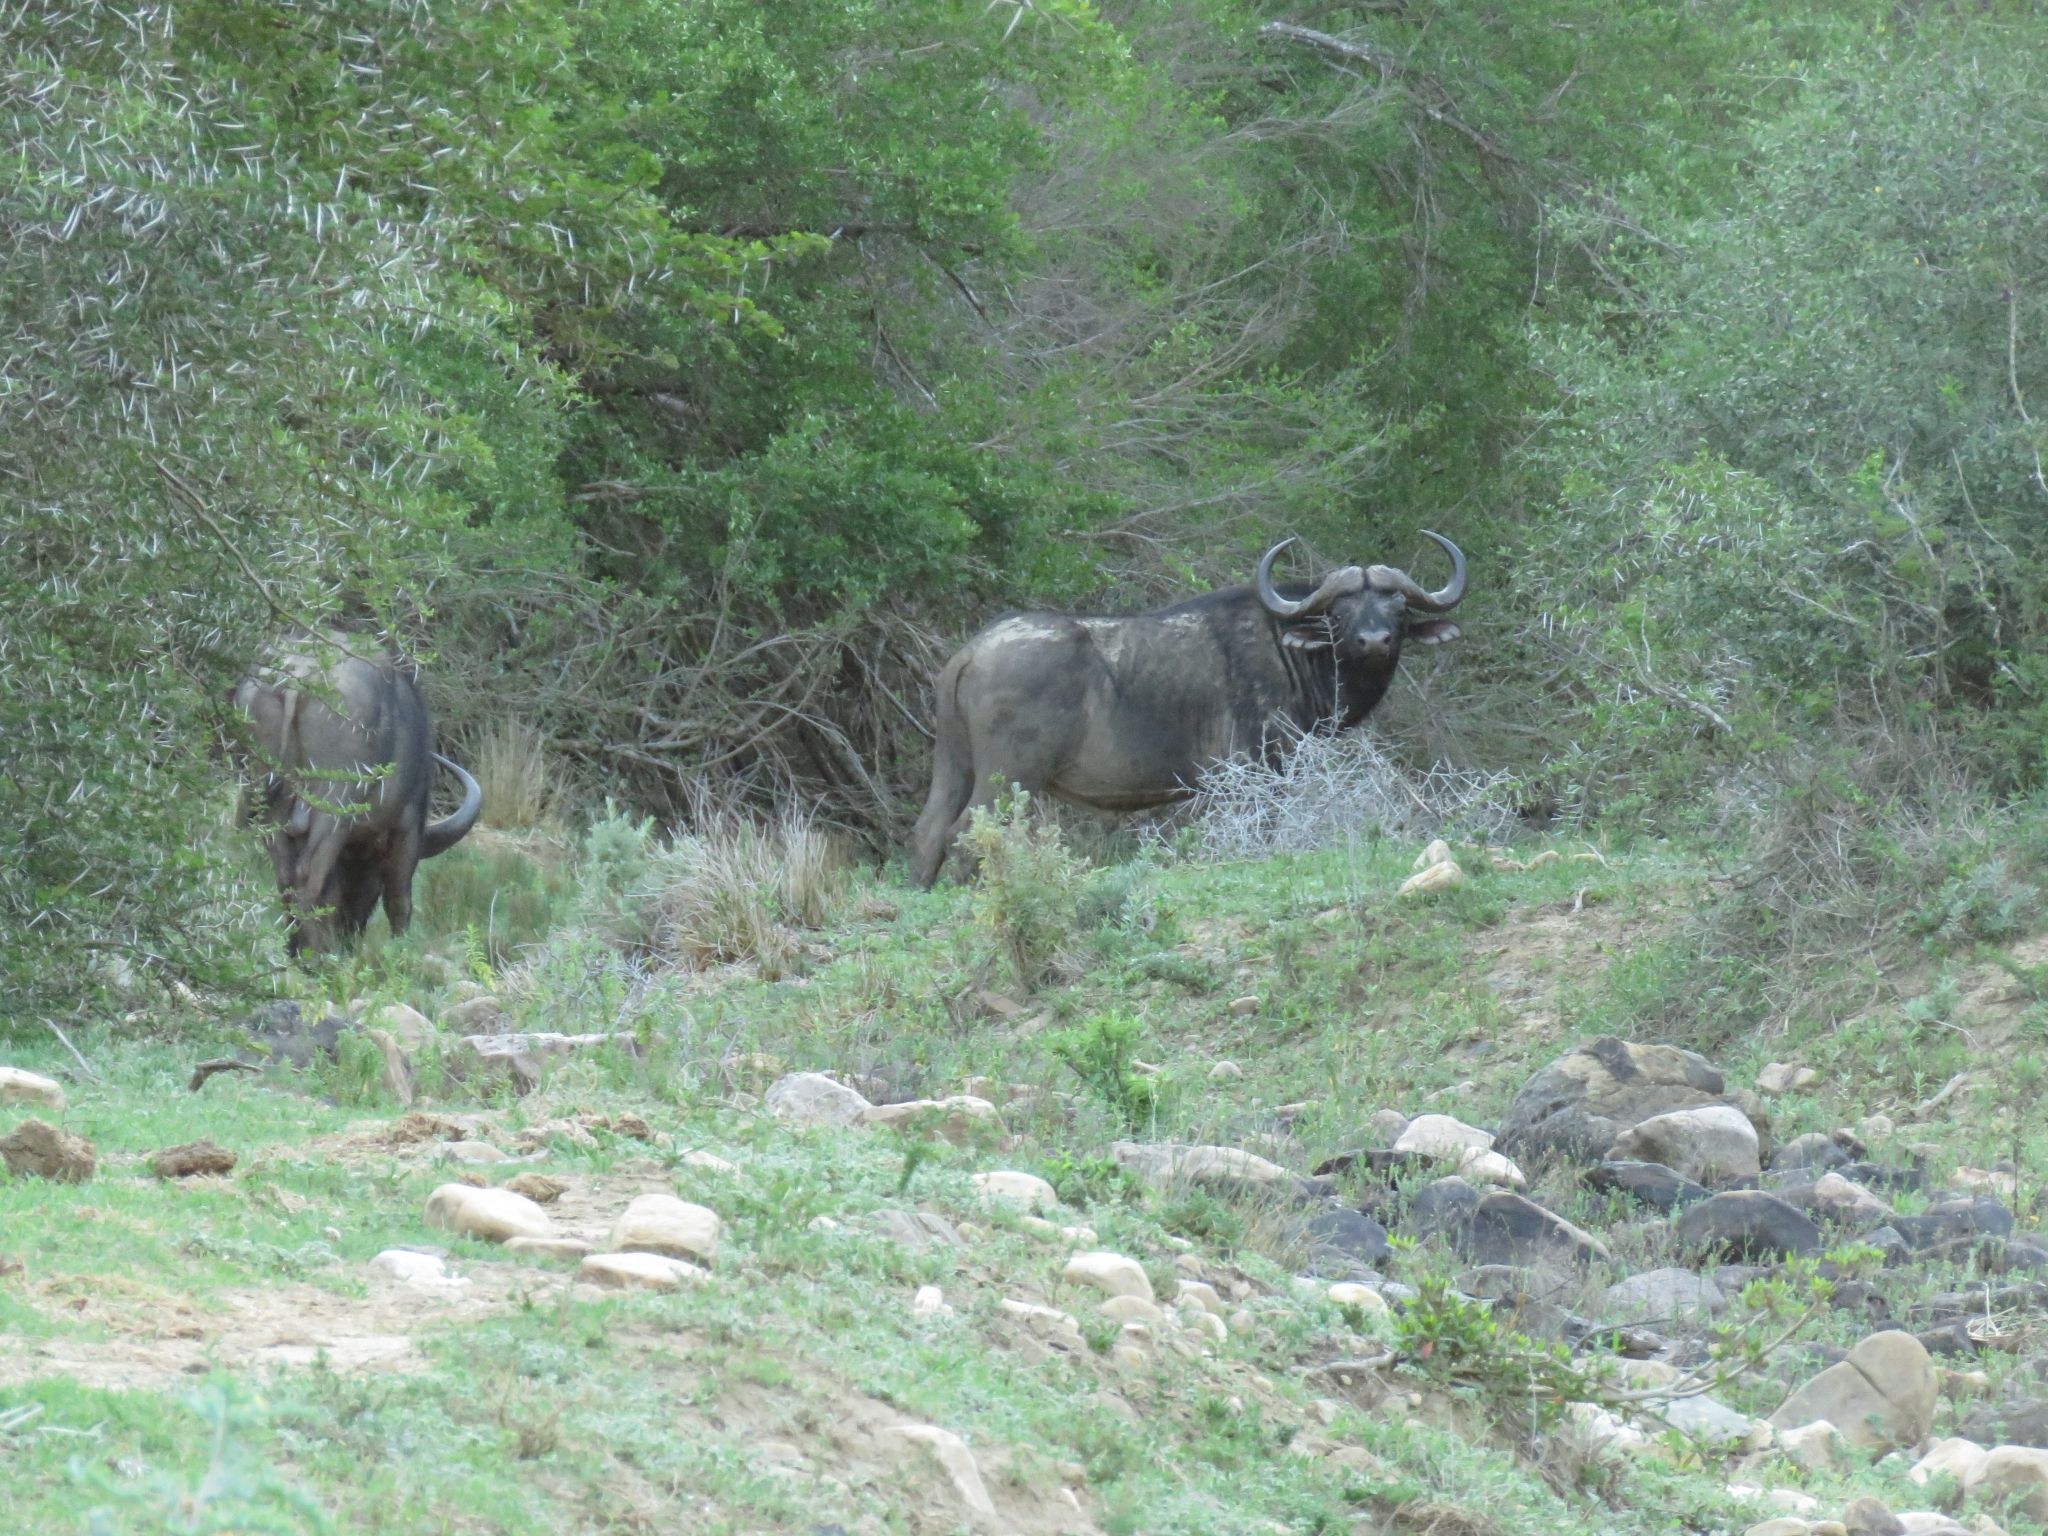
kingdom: Animalia
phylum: Chordata
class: Mammalia
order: Artiodactyla
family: Bovidae
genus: Syncerus
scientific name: Syncerus caffer
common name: African buffalo
